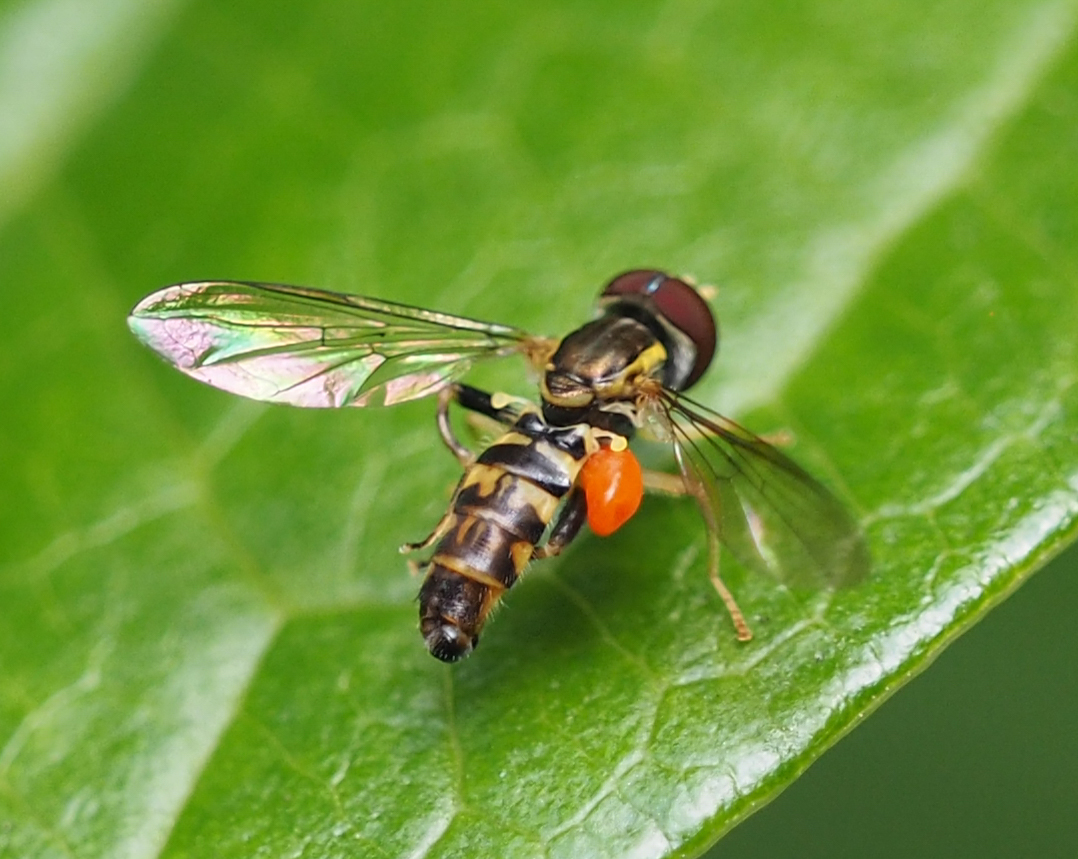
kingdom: Animalia
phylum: Arthropoda
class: Insecta
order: Diptera
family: Syrphidae
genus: Toxomerus
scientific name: Toxomerus geminatus
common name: Eastern calligrapher
